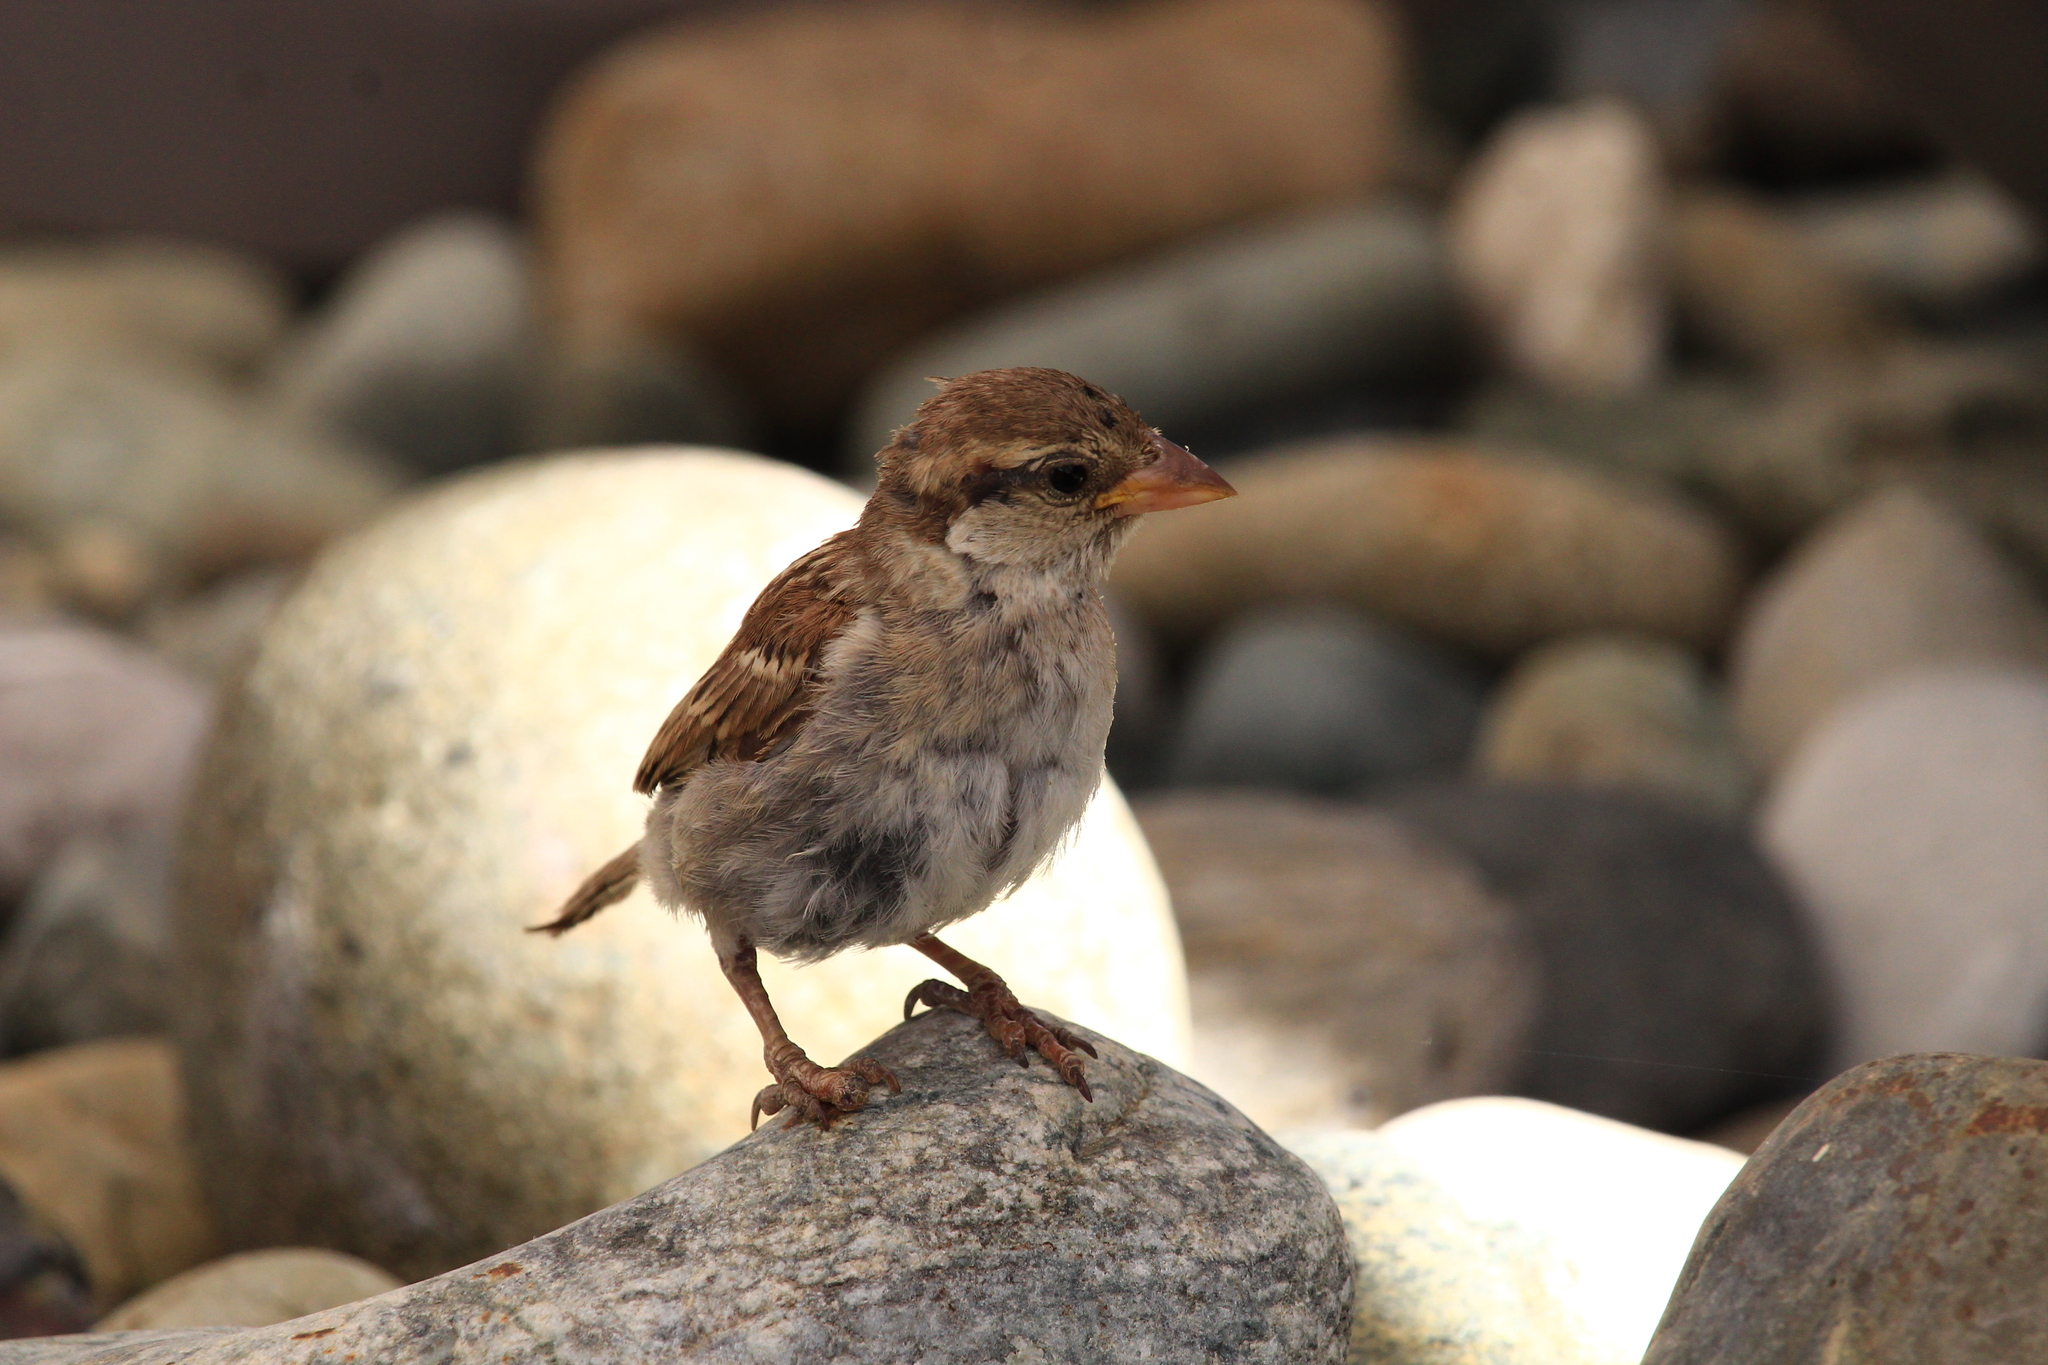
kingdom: Animalia
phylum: Chordata
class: Aves
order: Passeriformes
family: Passeridae
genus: Passer
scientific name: Passer domesticus
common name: House sparrow
